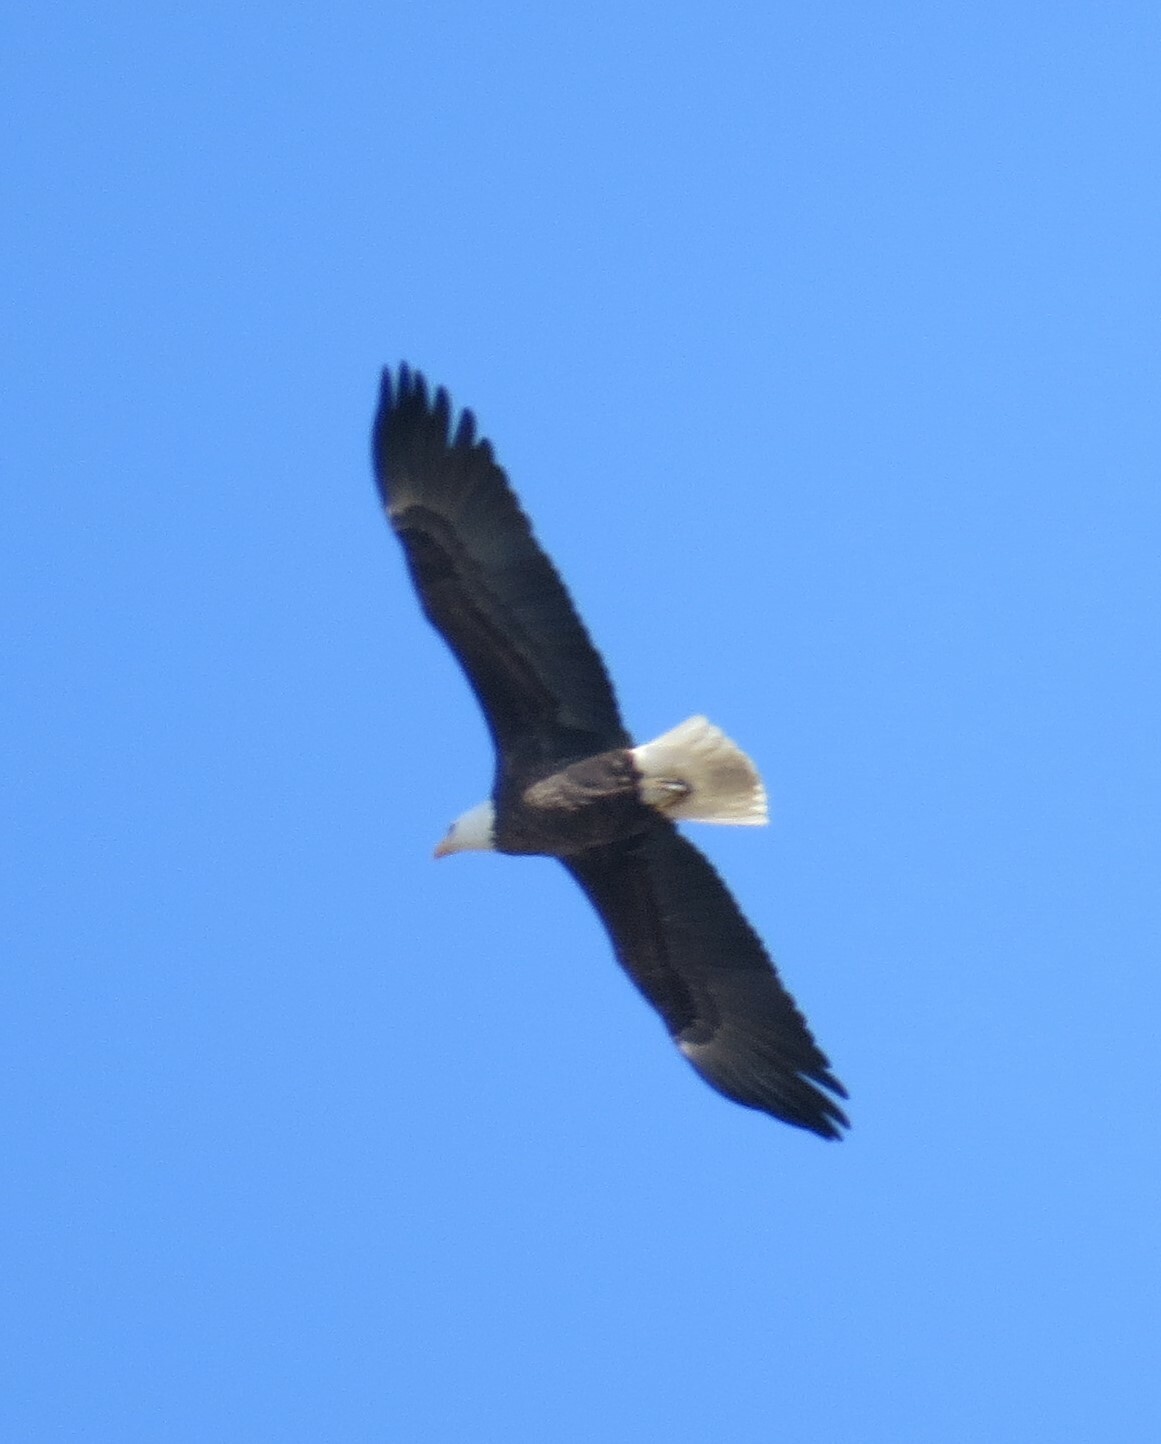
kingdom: Animalia
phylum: Chordata
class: Aves
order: Accipitriformes
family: Accipitridae
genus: Haliaeetus
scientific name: Haliaeetus leucocephalus
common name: Bald eagle
